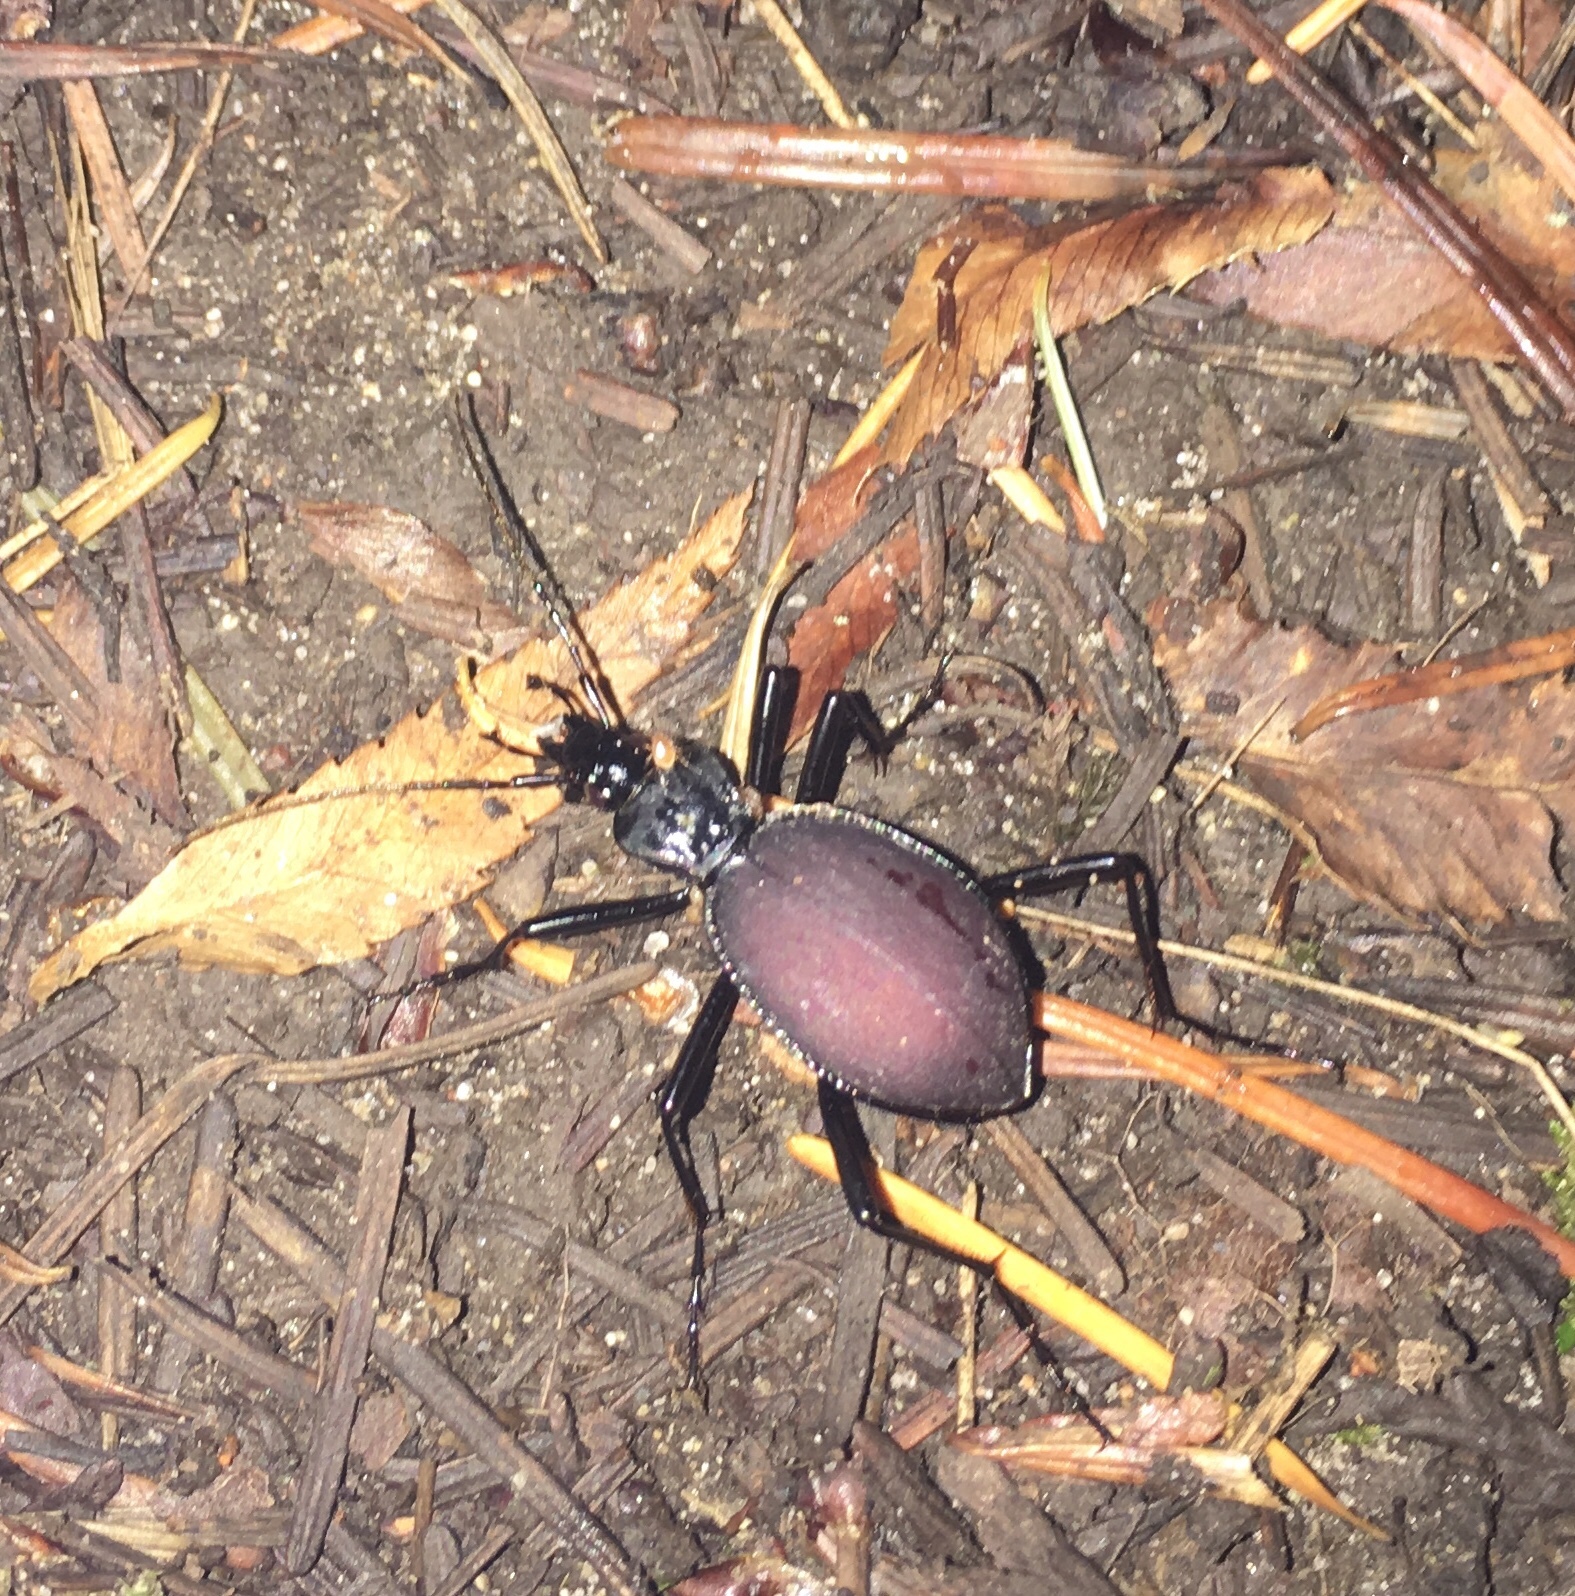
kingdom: Animalia
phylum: Arthropoda
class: Insecta
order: Coleoptera
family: Carabidae
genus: Scaphinotus
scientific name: Scaphinotus angusticollis
